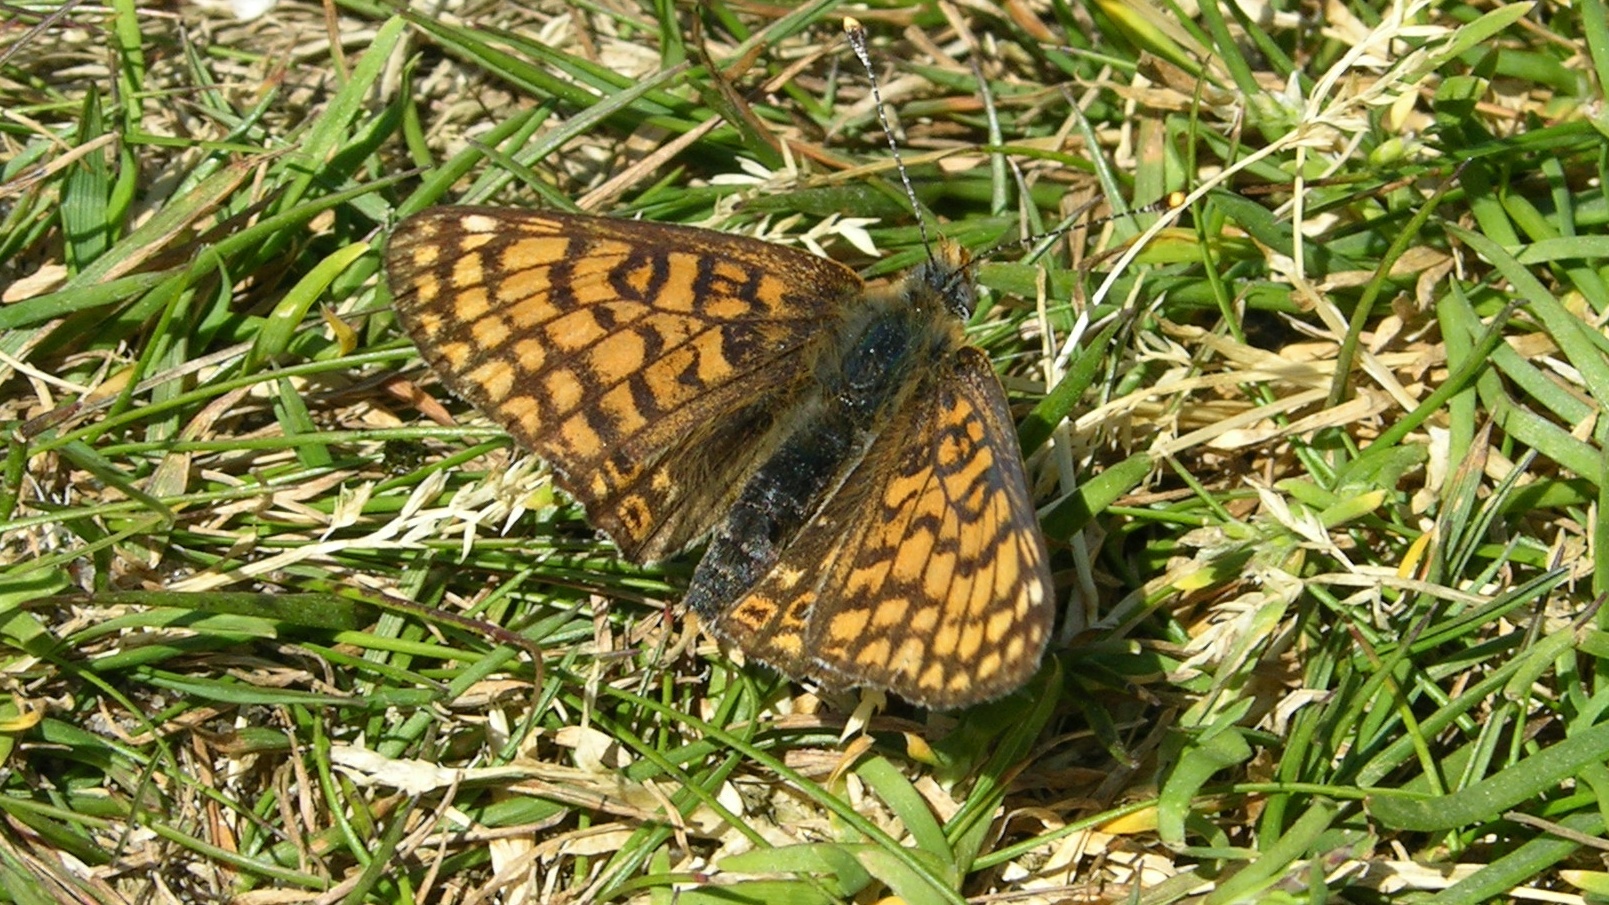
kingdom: Animalia
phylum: Arthropoda
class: Insecta
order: Lepidoptera
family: Nymphalidae
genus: Melitaea
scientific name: Melitaea cinxia
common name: Glanville fritillary
